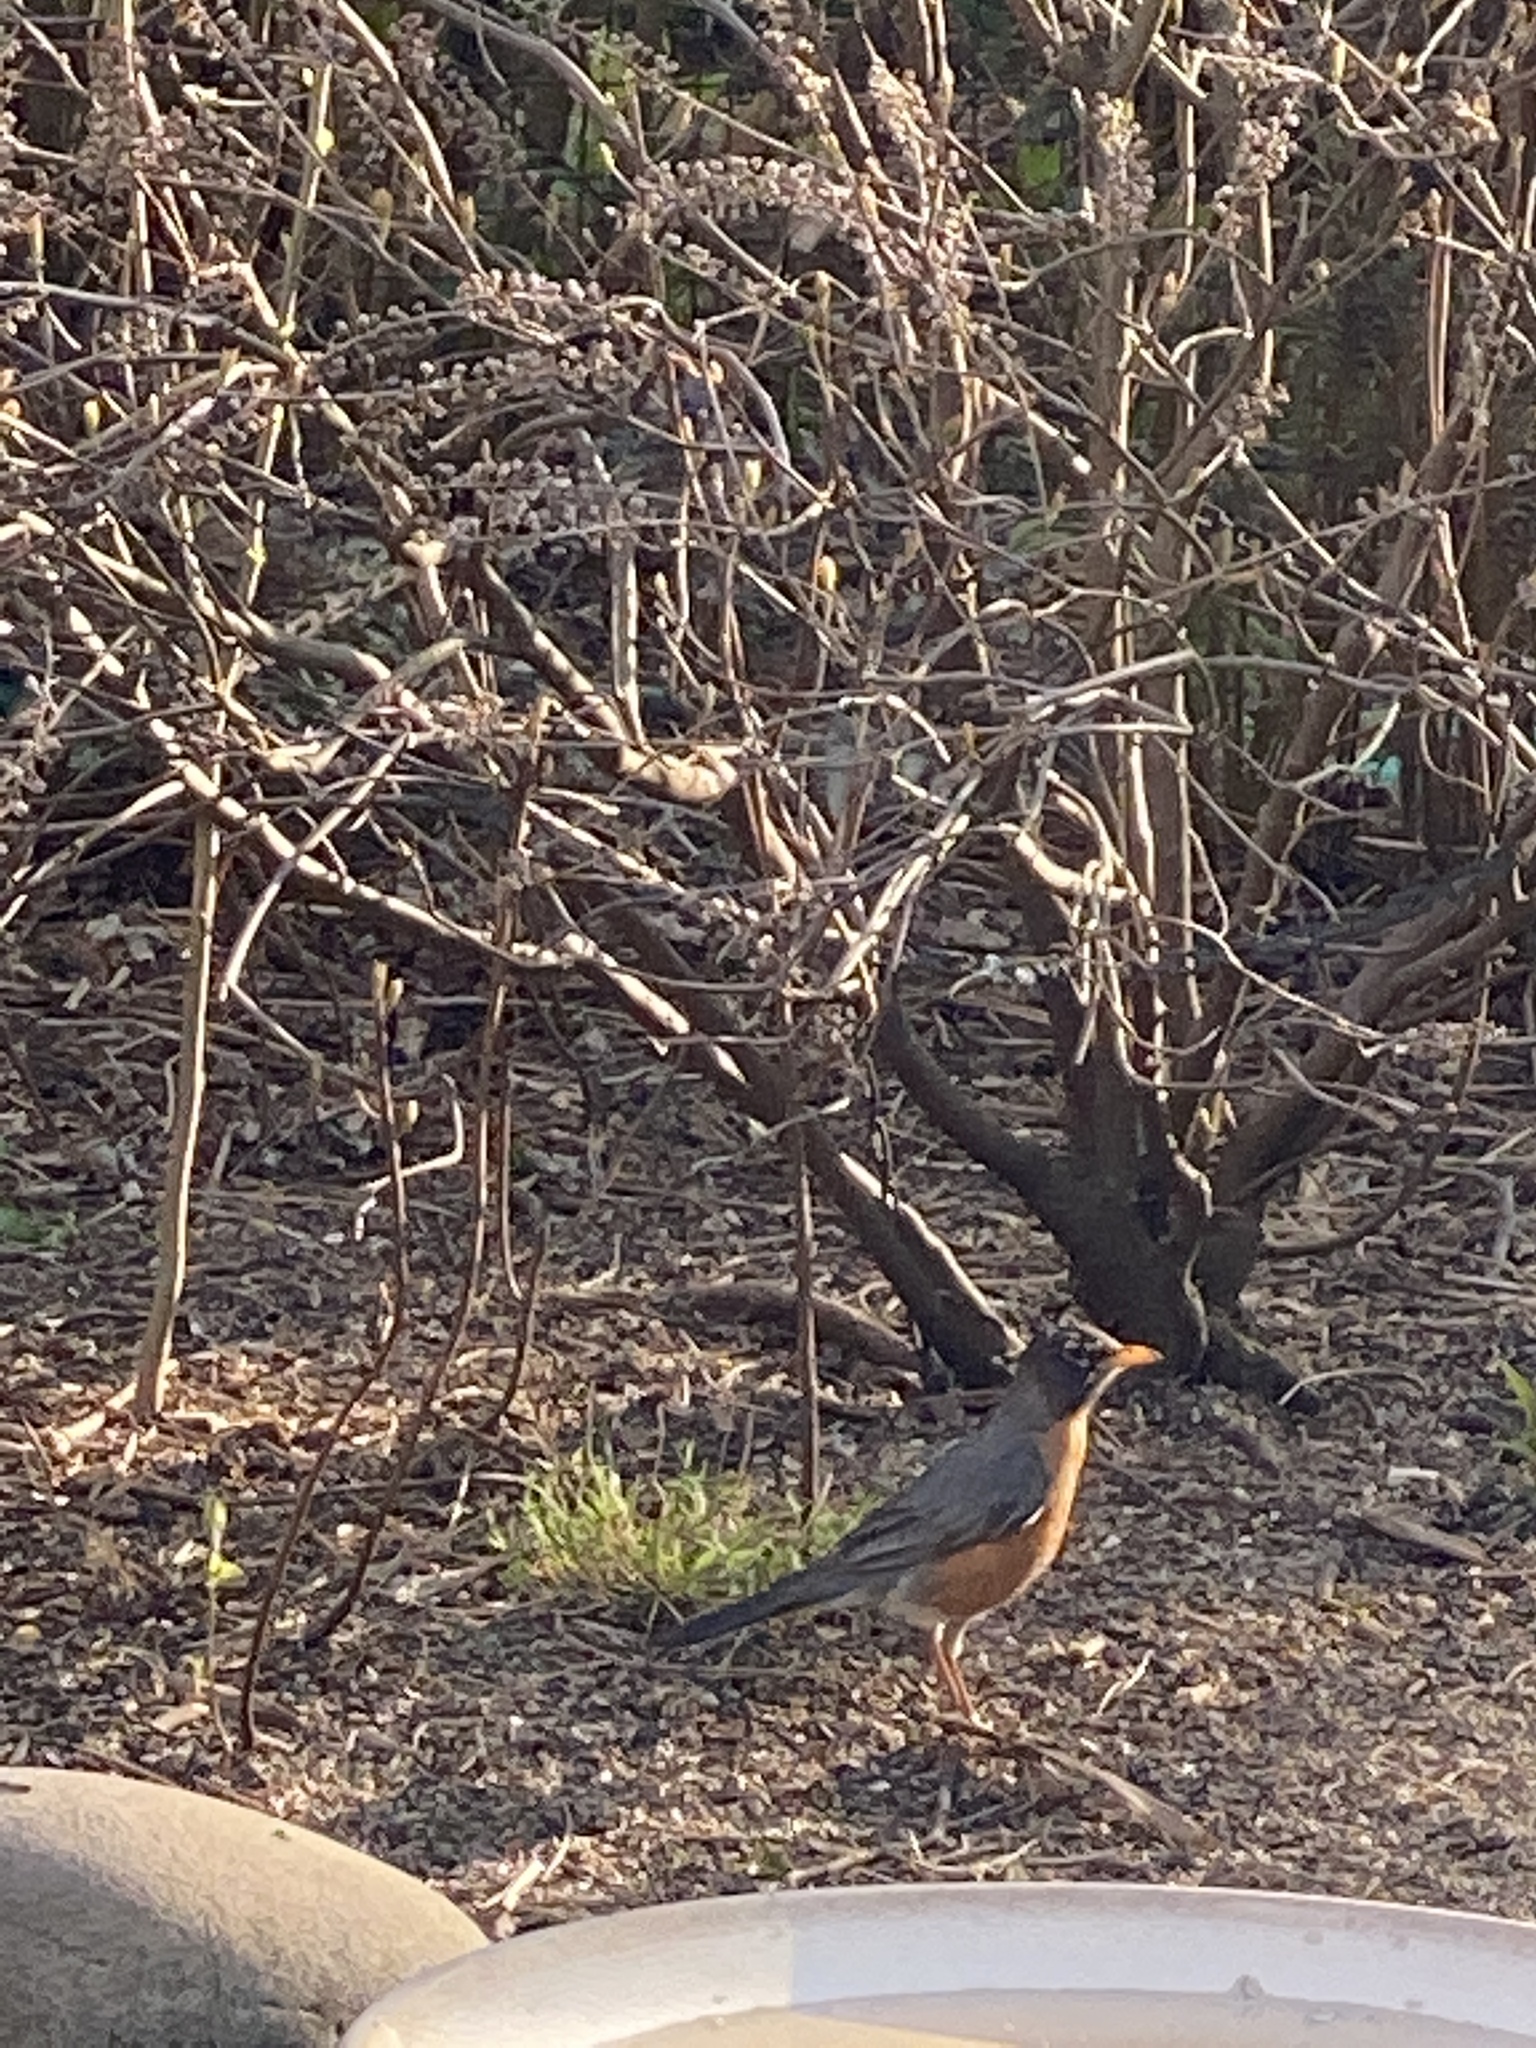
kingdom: Animalia
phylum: Chordata
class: Aves
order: Passeriformes
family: Turdidae
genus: Turdus
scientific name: Turdus migratorius
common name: American robin
